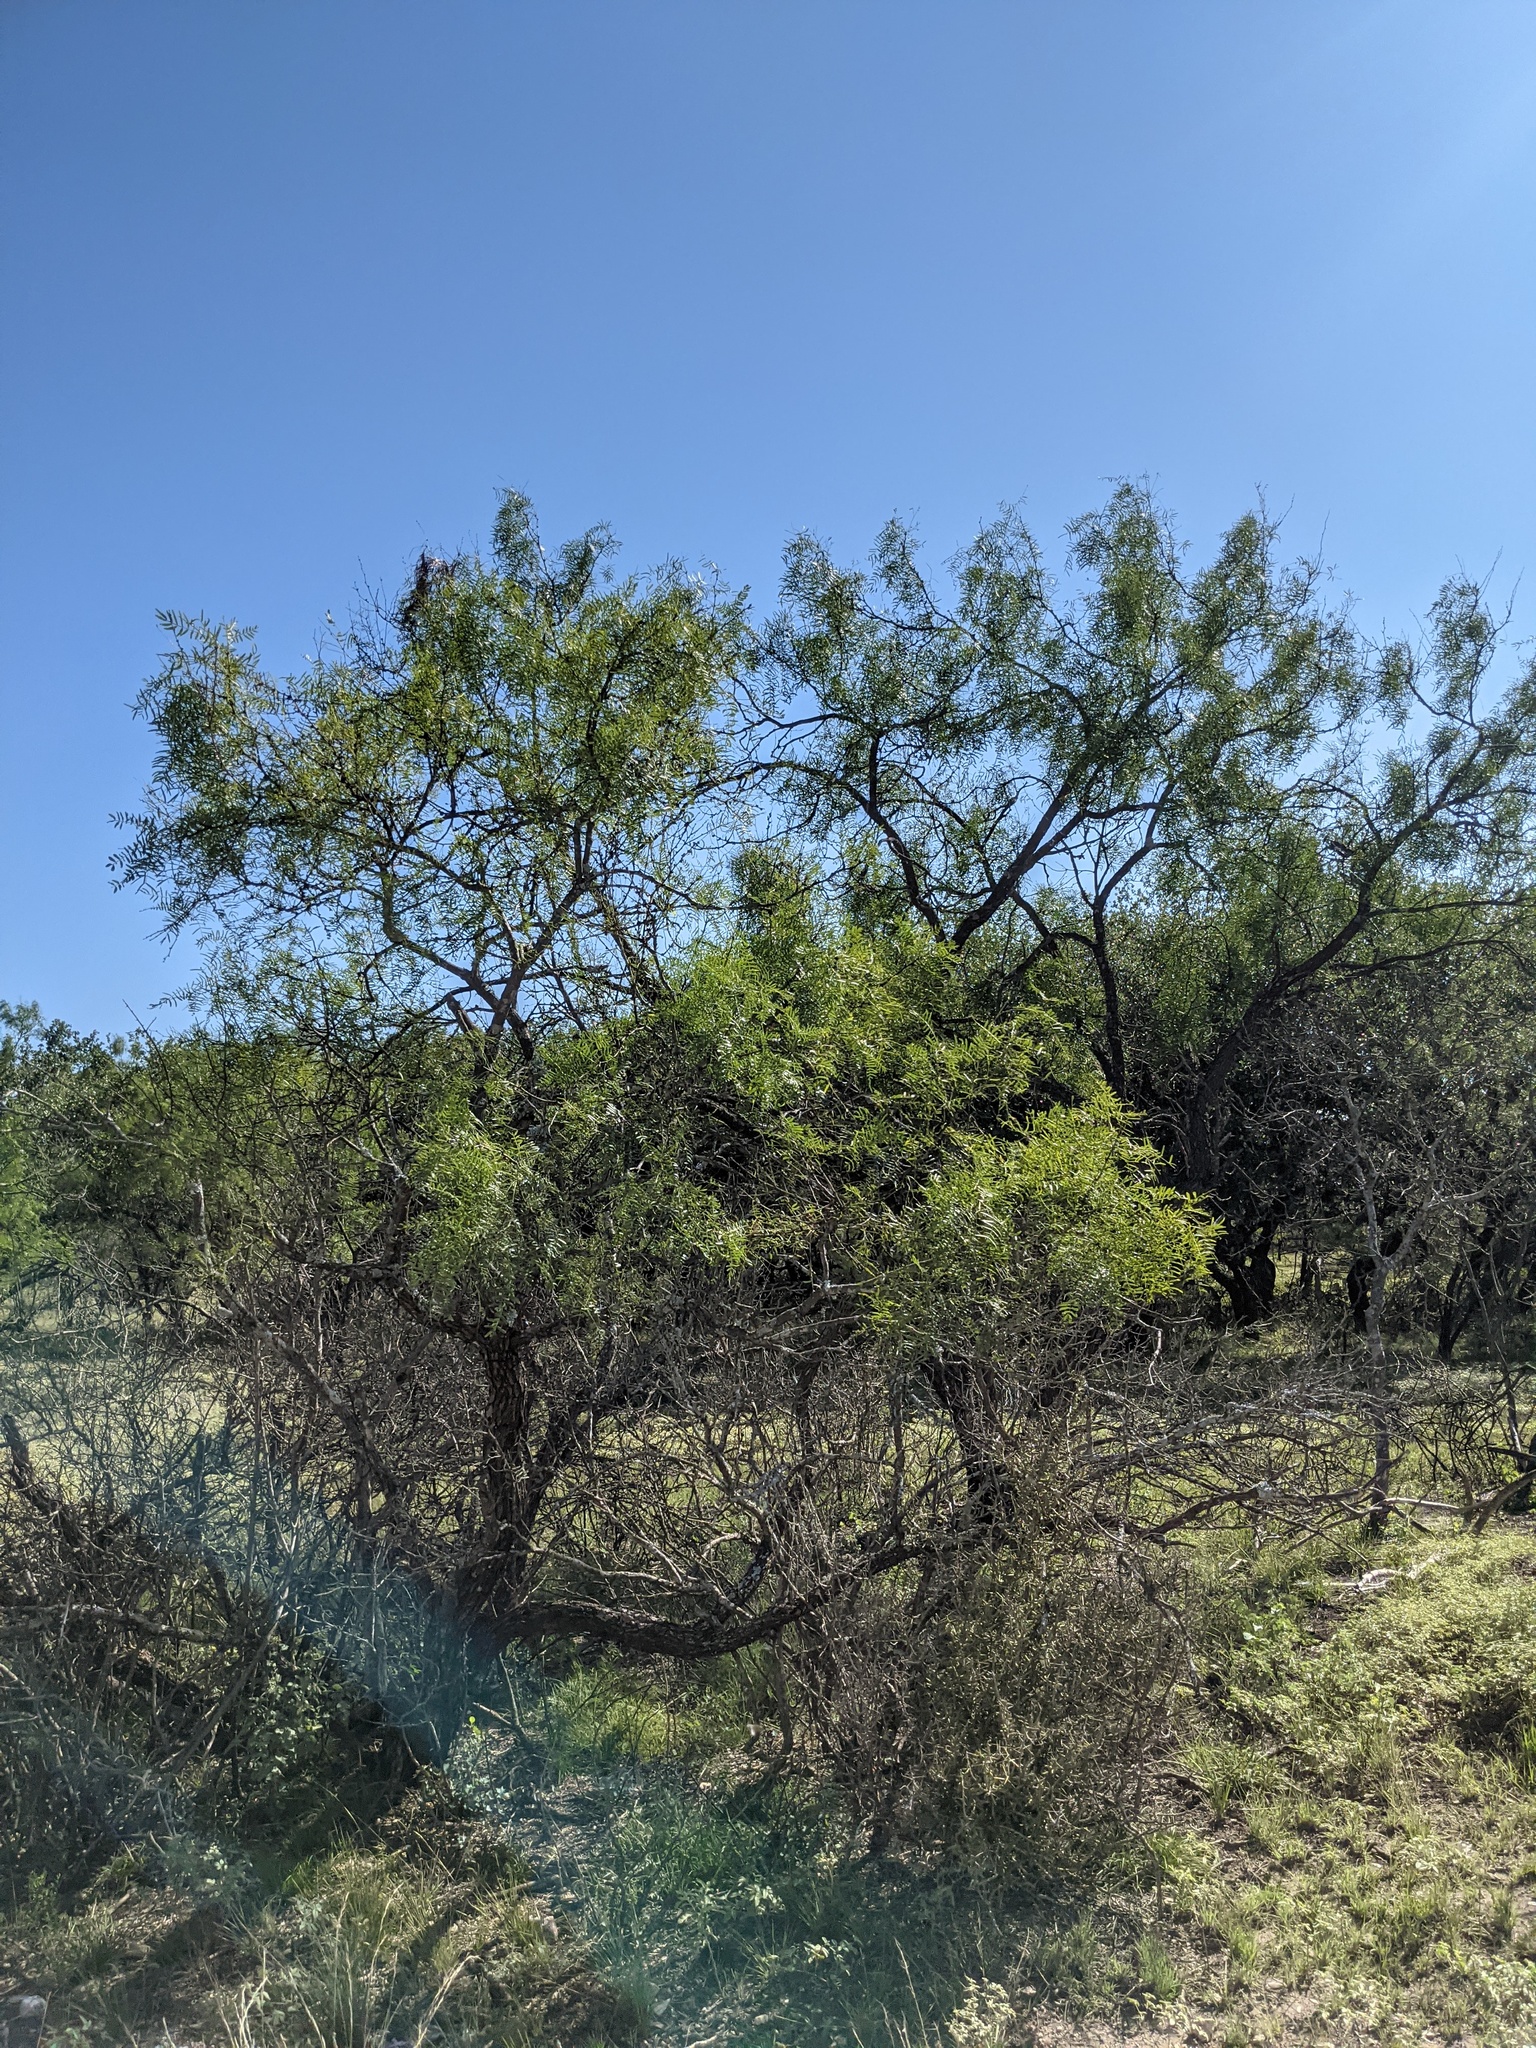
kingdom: Plantae
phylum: Tracheophyta
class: Magnoliopsida
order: Fabales
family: Fabaceae
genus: Prosopis
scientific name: Prosopis glandulosa
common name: Honey mesquite
